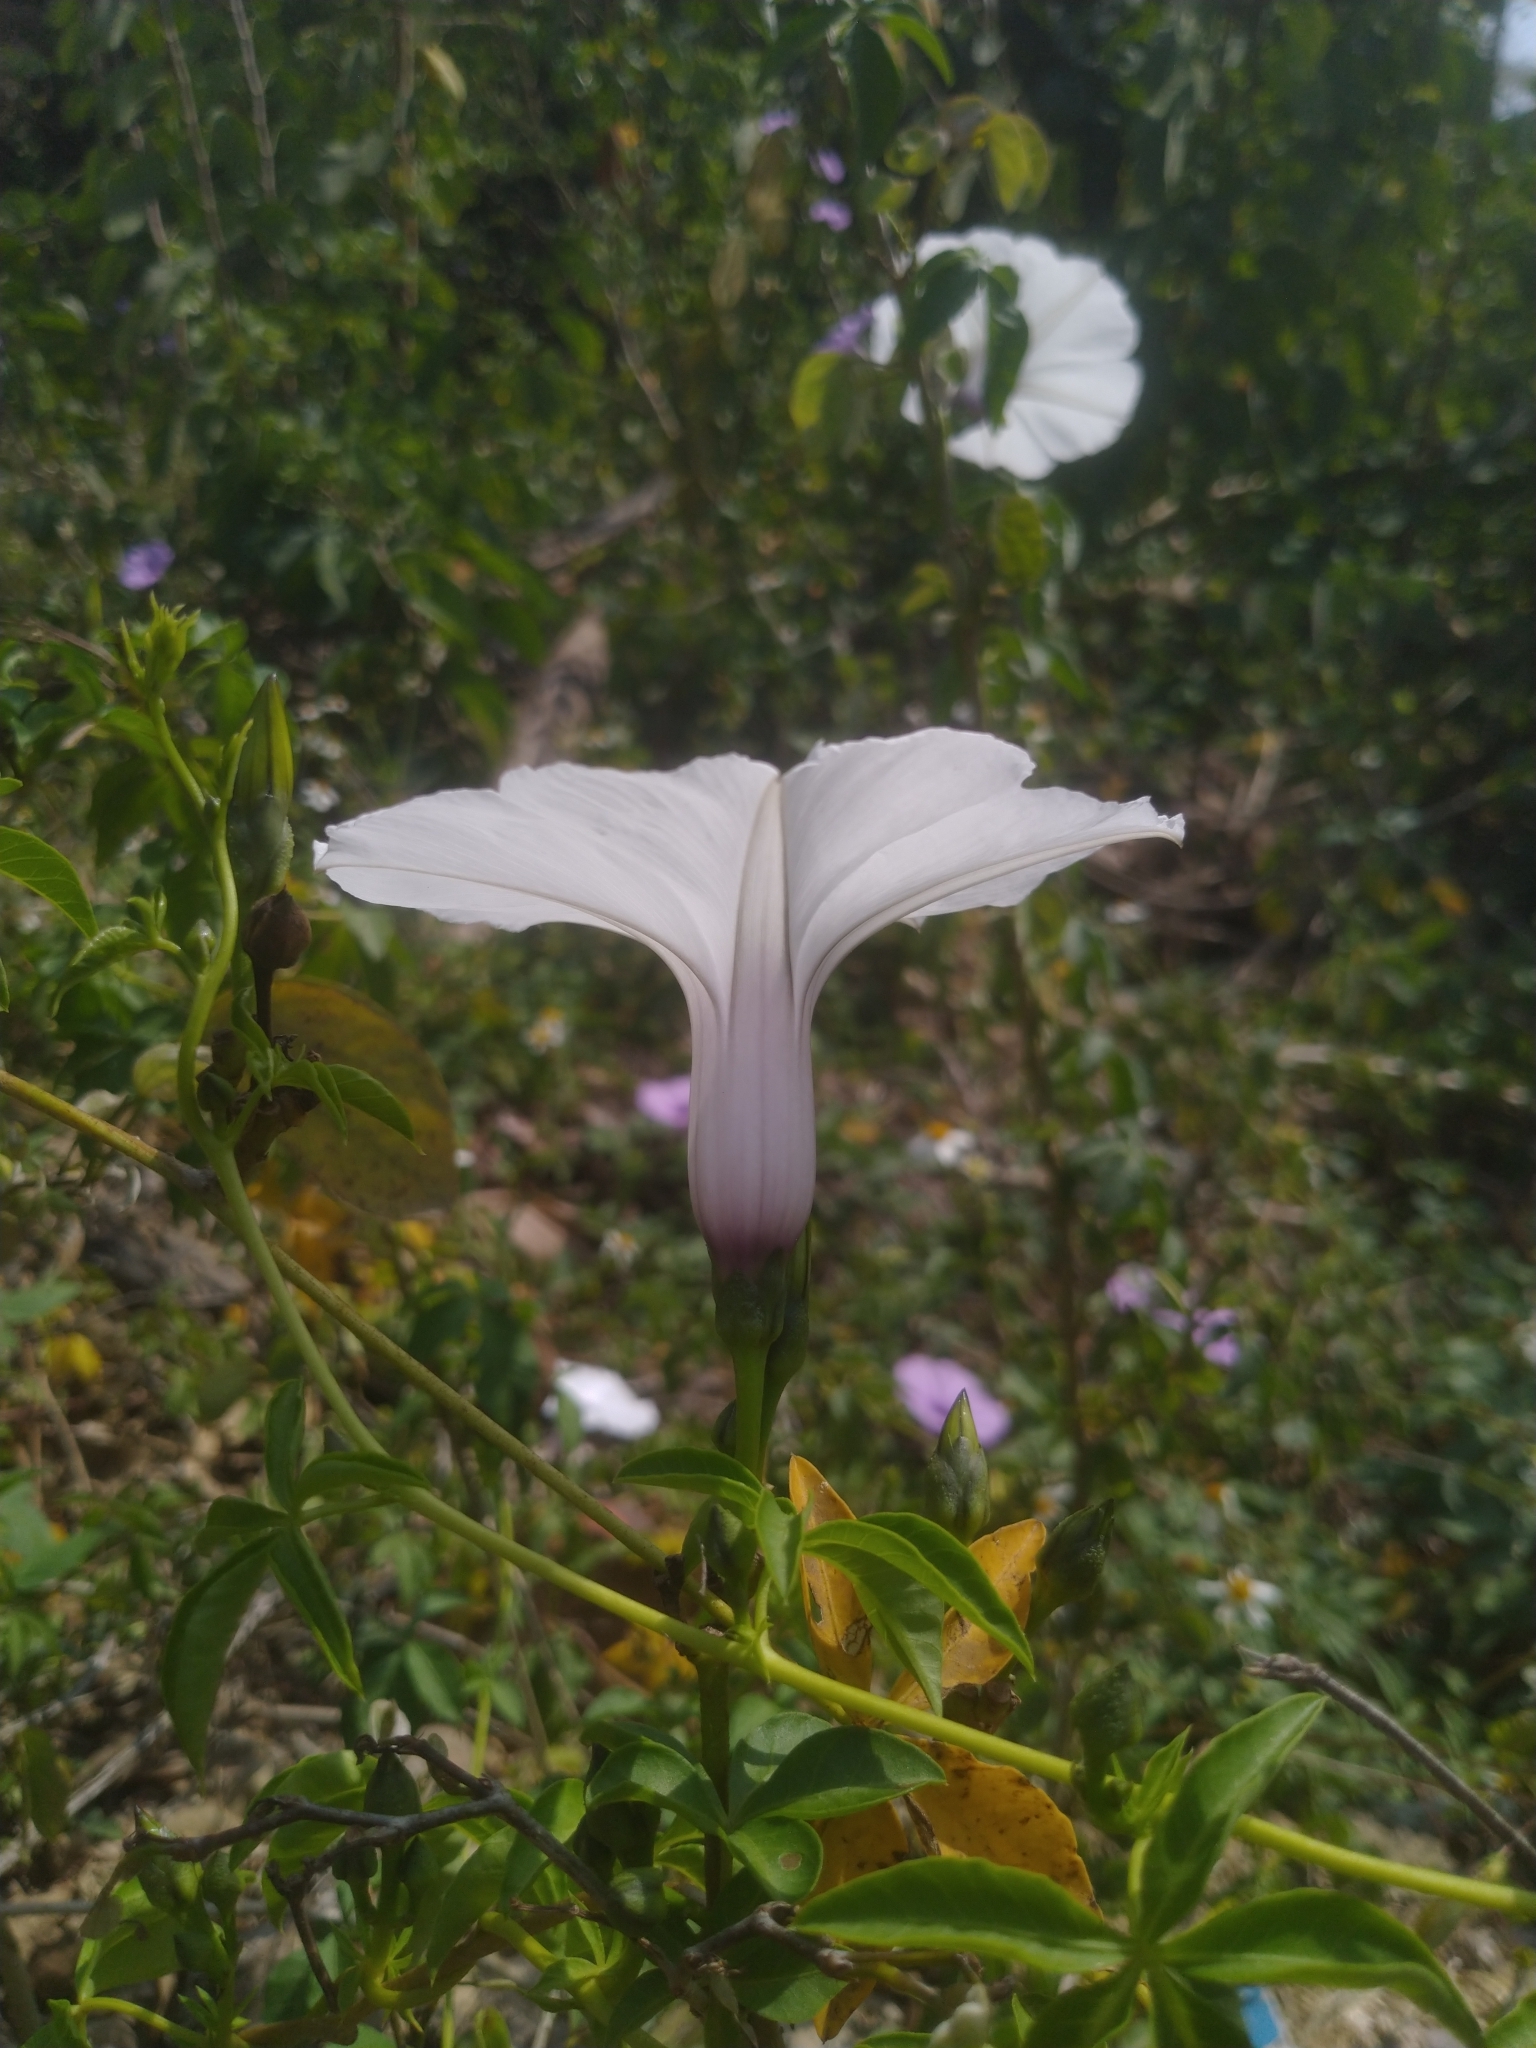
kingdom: Plantae
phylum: Tracheophyta
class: Magnoliopsida
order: Solanales
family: Convolvulaceae
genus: Ipomoea
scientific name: Ipomoea cairica
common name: Mile a minute vine
